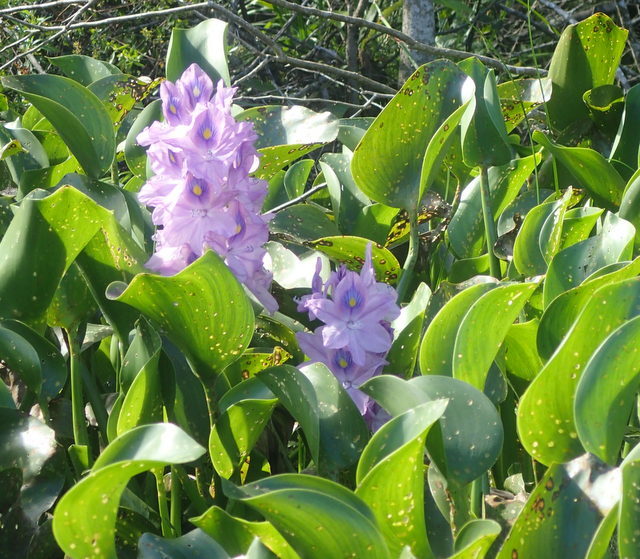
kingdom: Plantae
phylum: Tracheophyta
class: Liliopsida
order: Commelinales
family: Pontederiaceae
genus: Pontederia
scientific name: Pontederia crassipes
